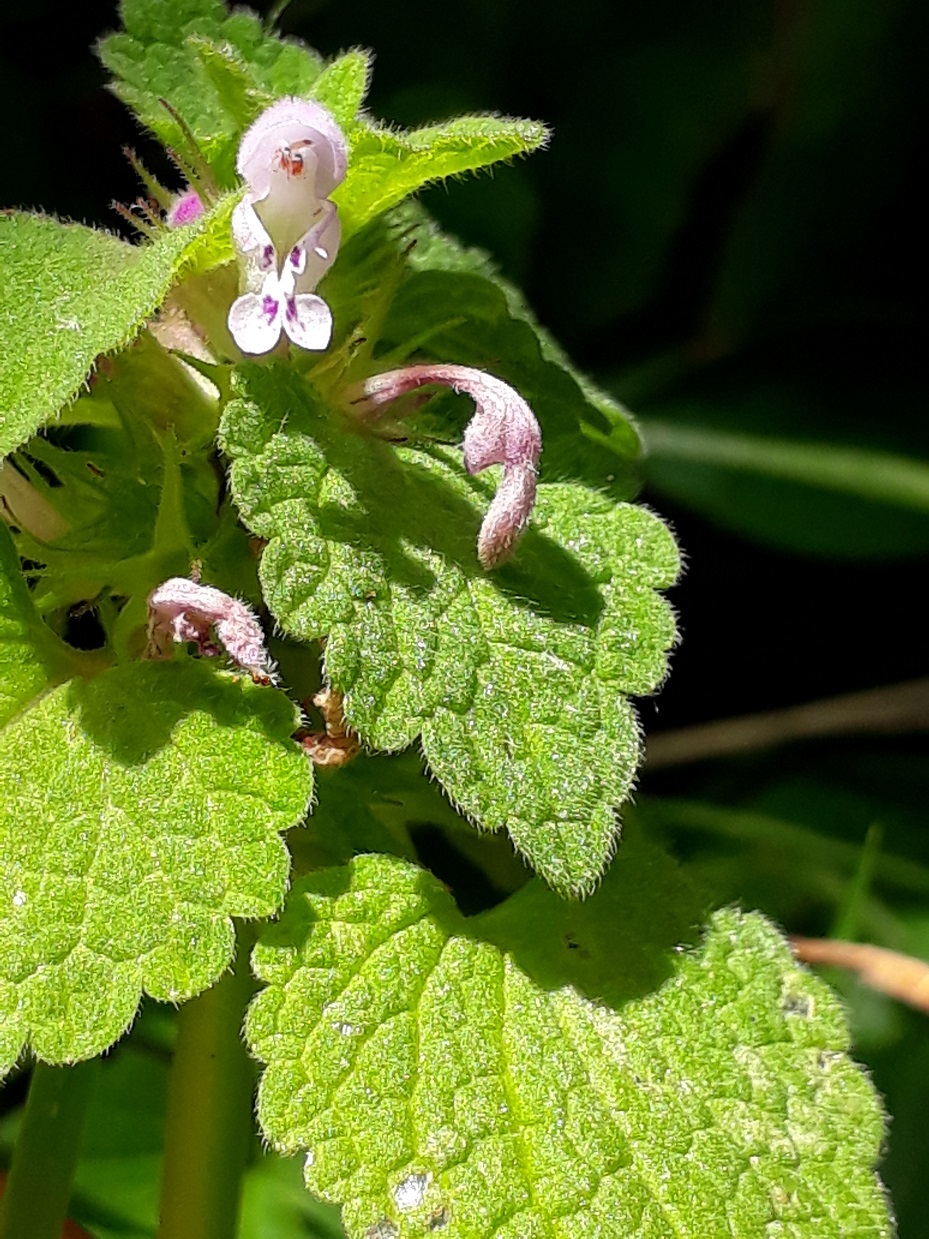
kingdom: Plantae
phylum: Tracheophyta
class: Magnoliopsida
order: Lamiales
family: Lamiaceae
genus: Lamium
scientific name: Lamium purpureum
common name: Red dead-nettle
